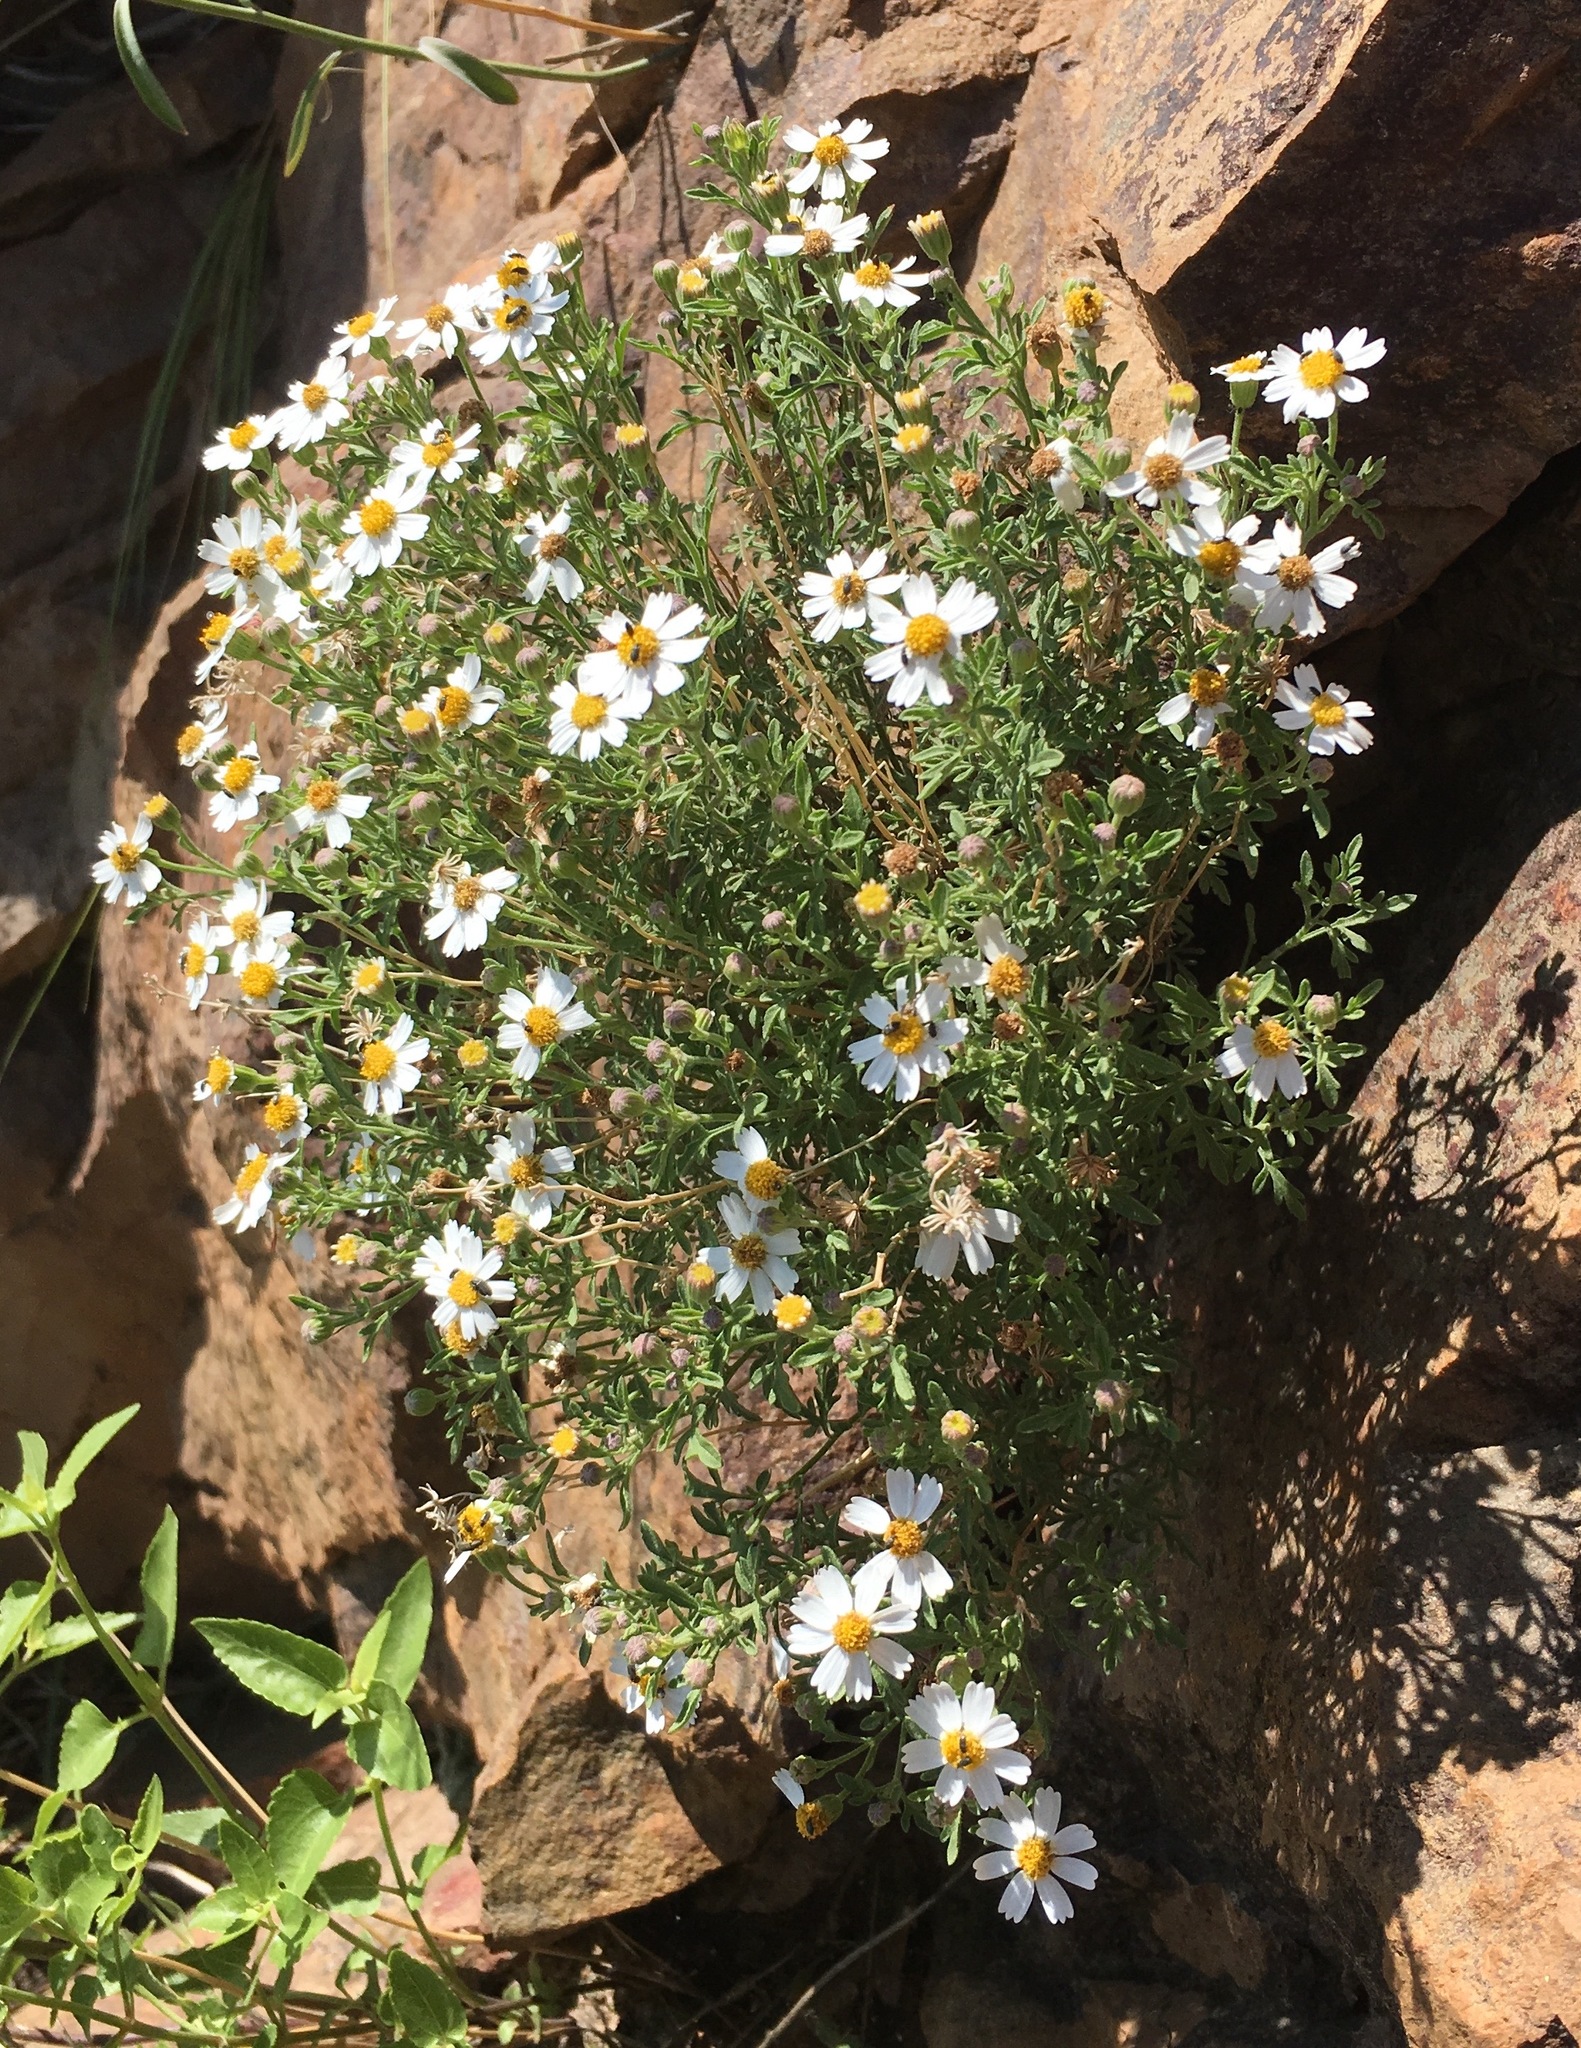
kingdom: Plantae
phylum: Tracheophyta
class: Magnoliopsida
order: Asterales
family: Asteraceae
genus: Galinsogeopsis
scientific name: Galinsogeopsis coronopifolia
